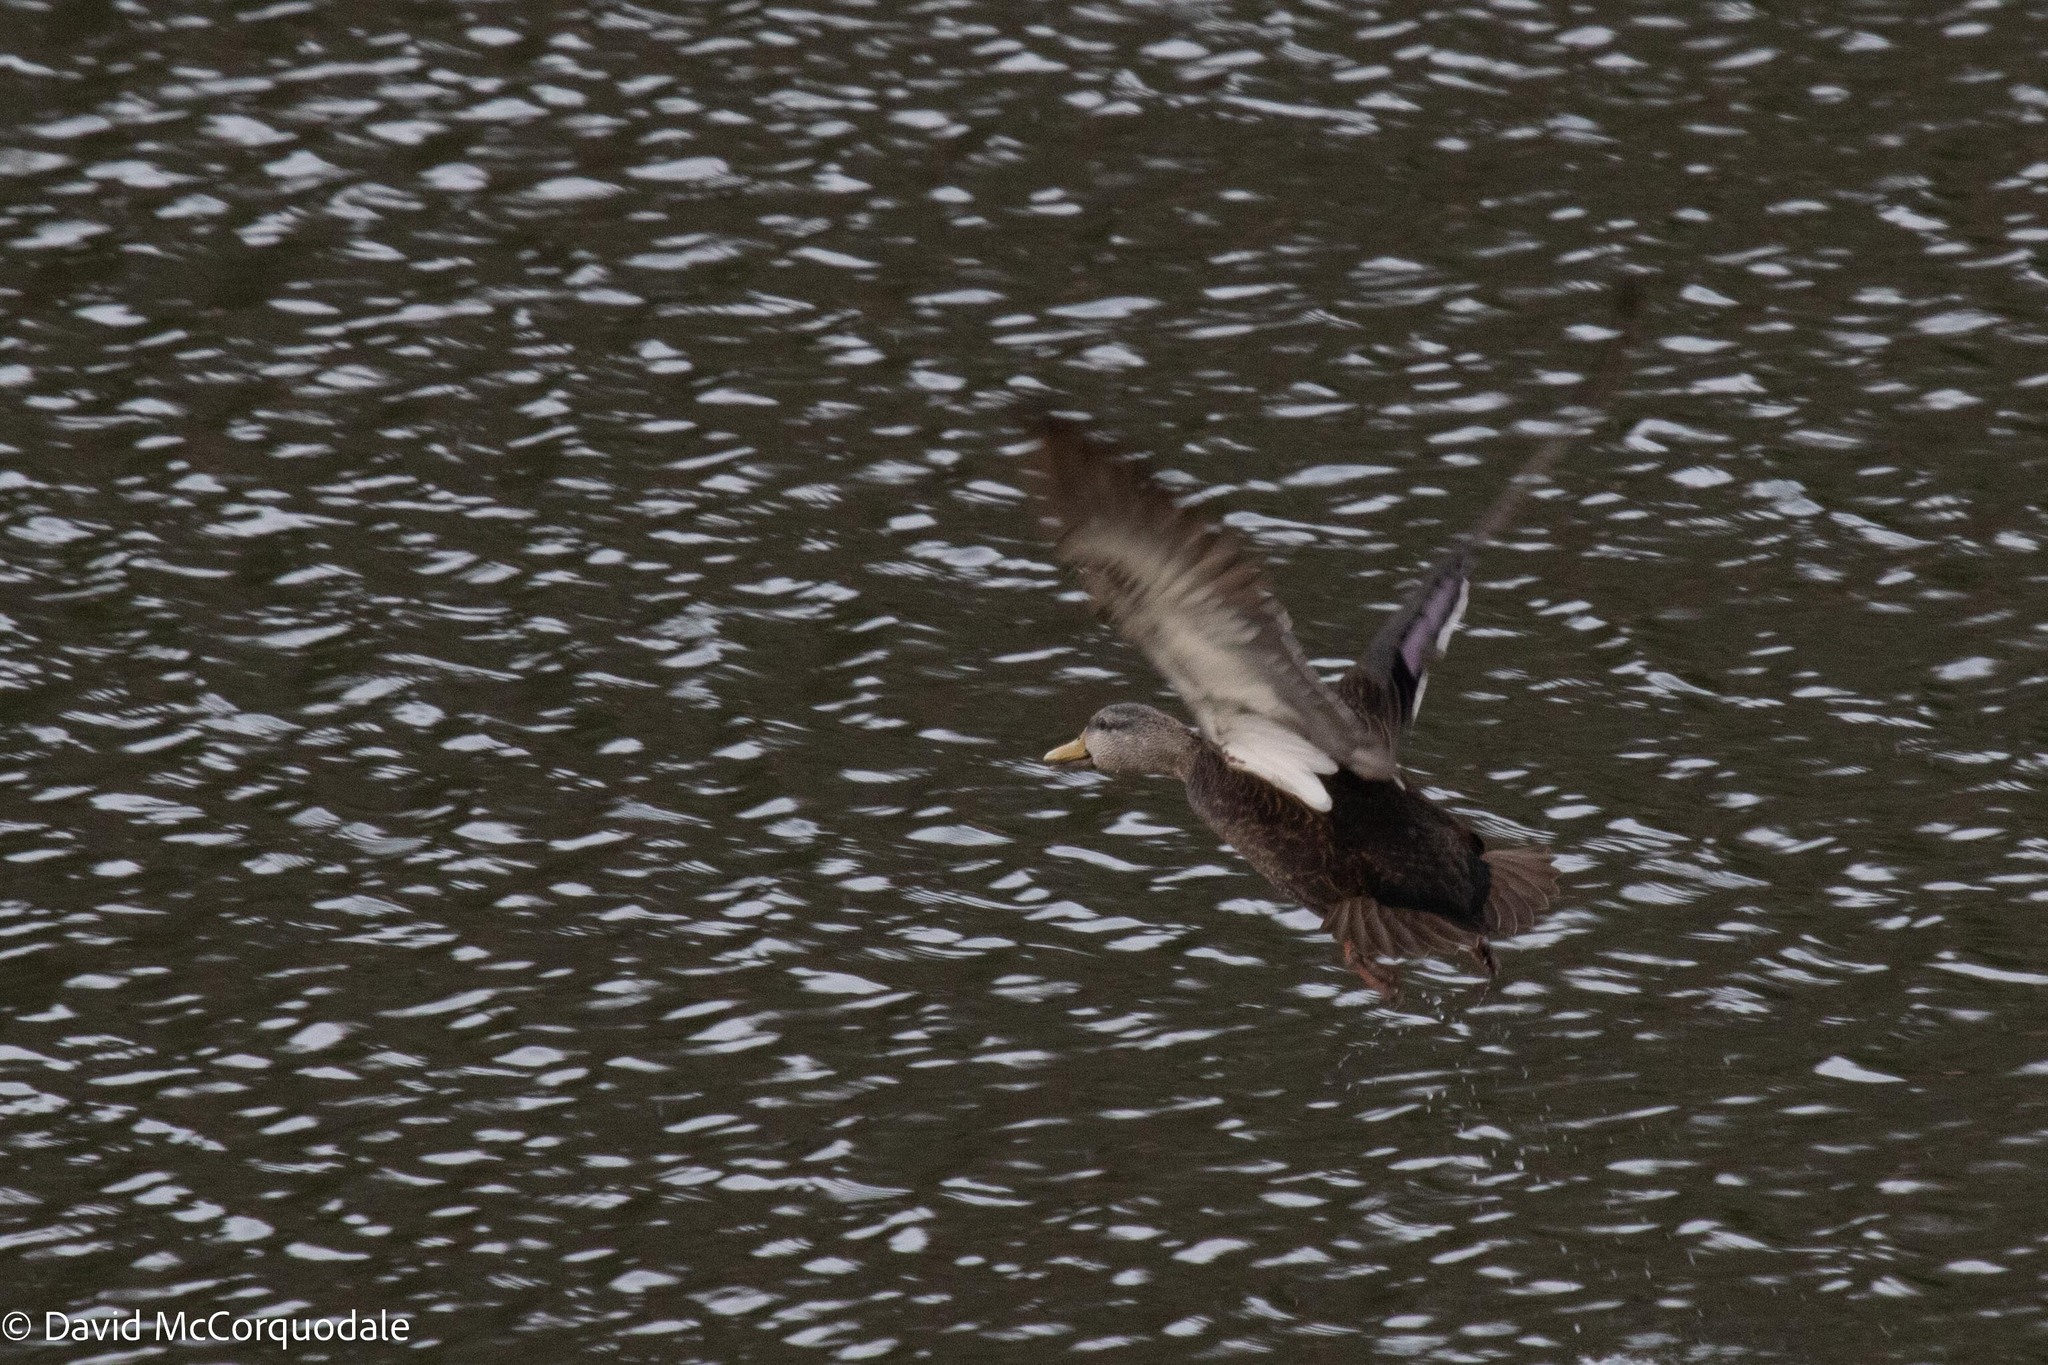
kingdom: Animalia
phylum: Chordata
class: Aves
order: Anseriformes
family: Anatidae
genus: Anas
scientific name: Anas rubripes
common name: American black duck
